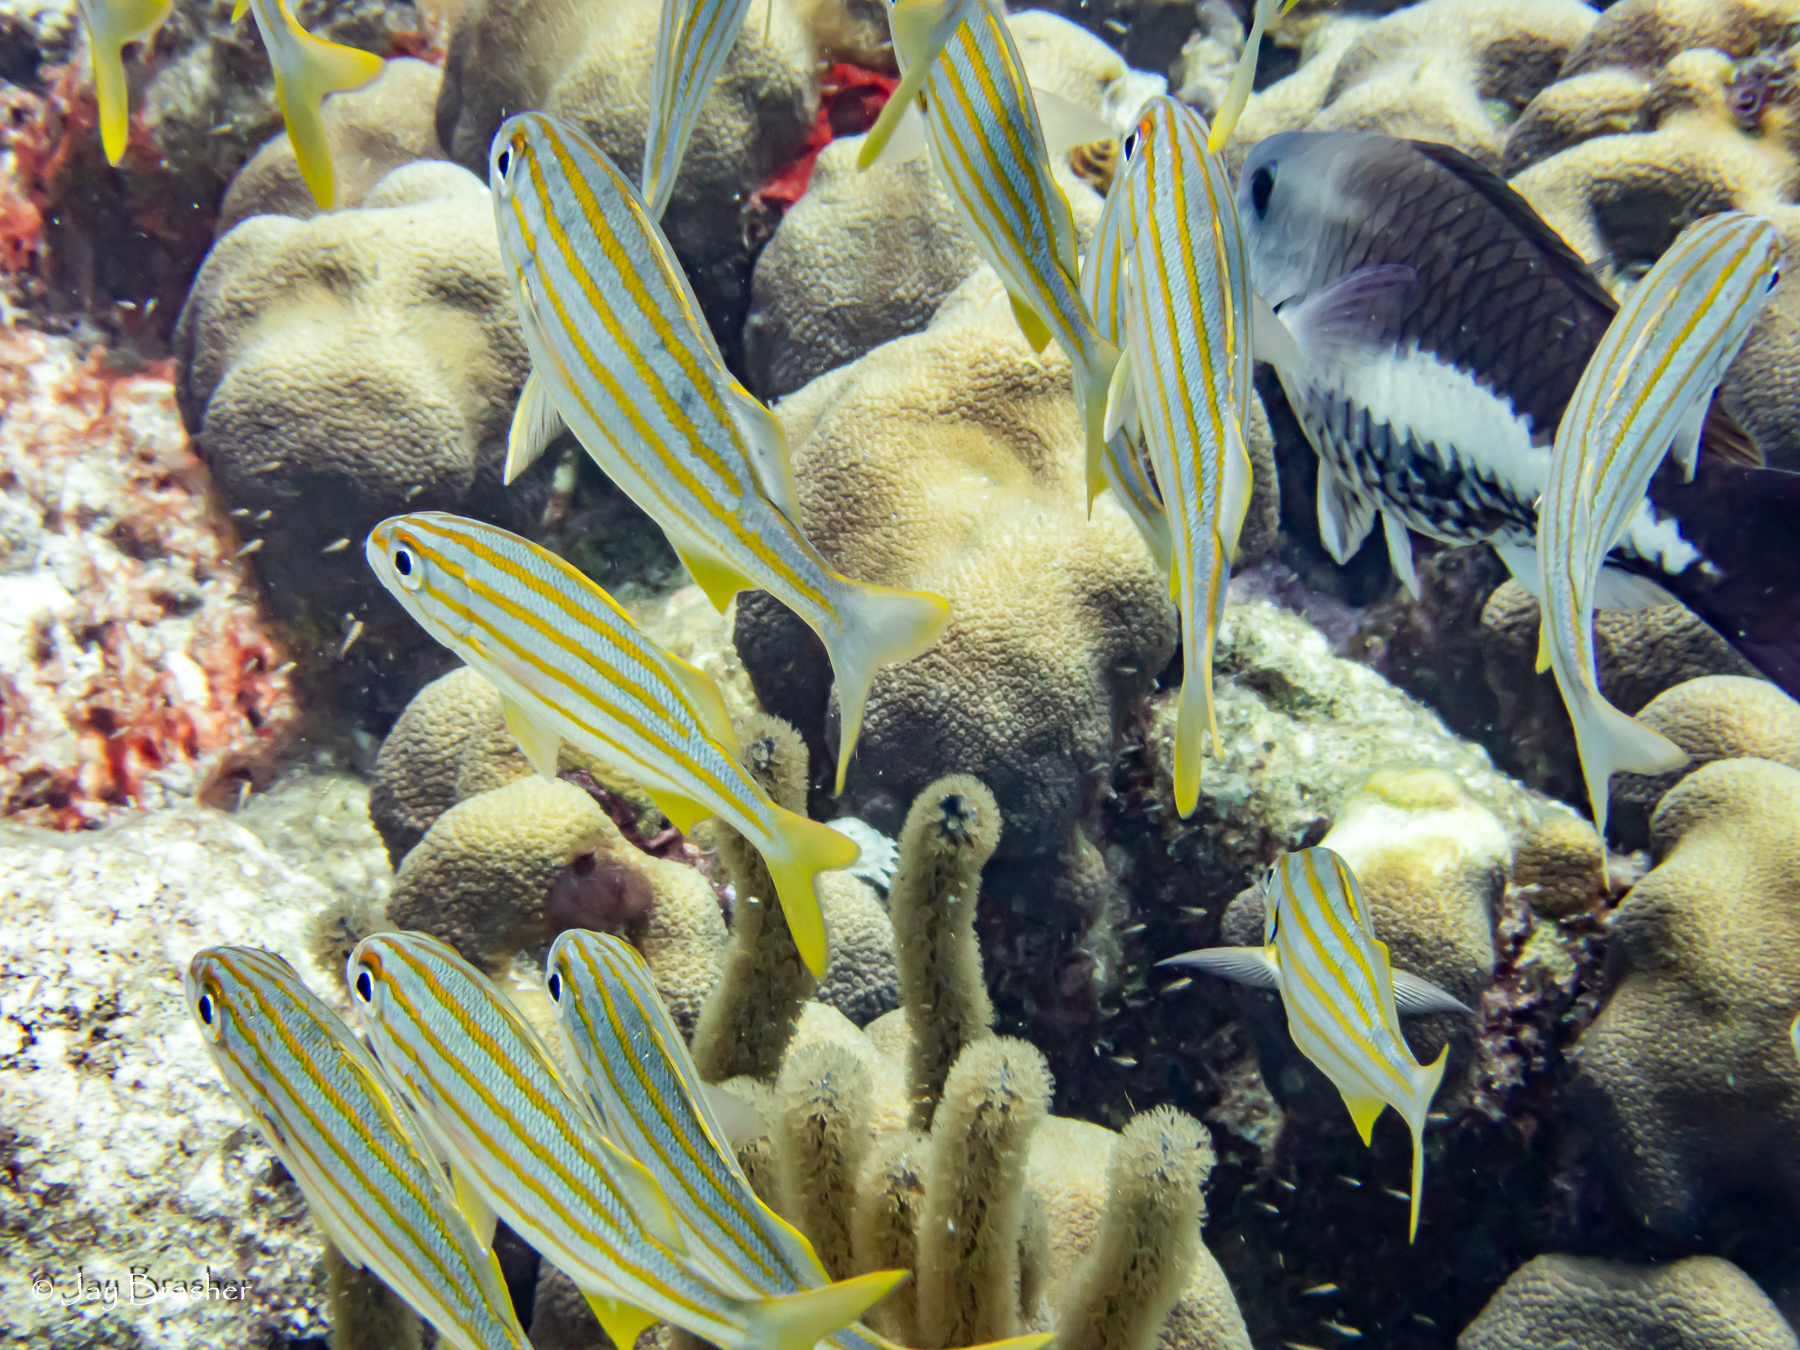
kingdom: Animalia
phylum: Chordata
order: Perciformes
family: Scaridae
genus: Scarus
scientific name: Scarus vetula
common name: Queen parrotfish
